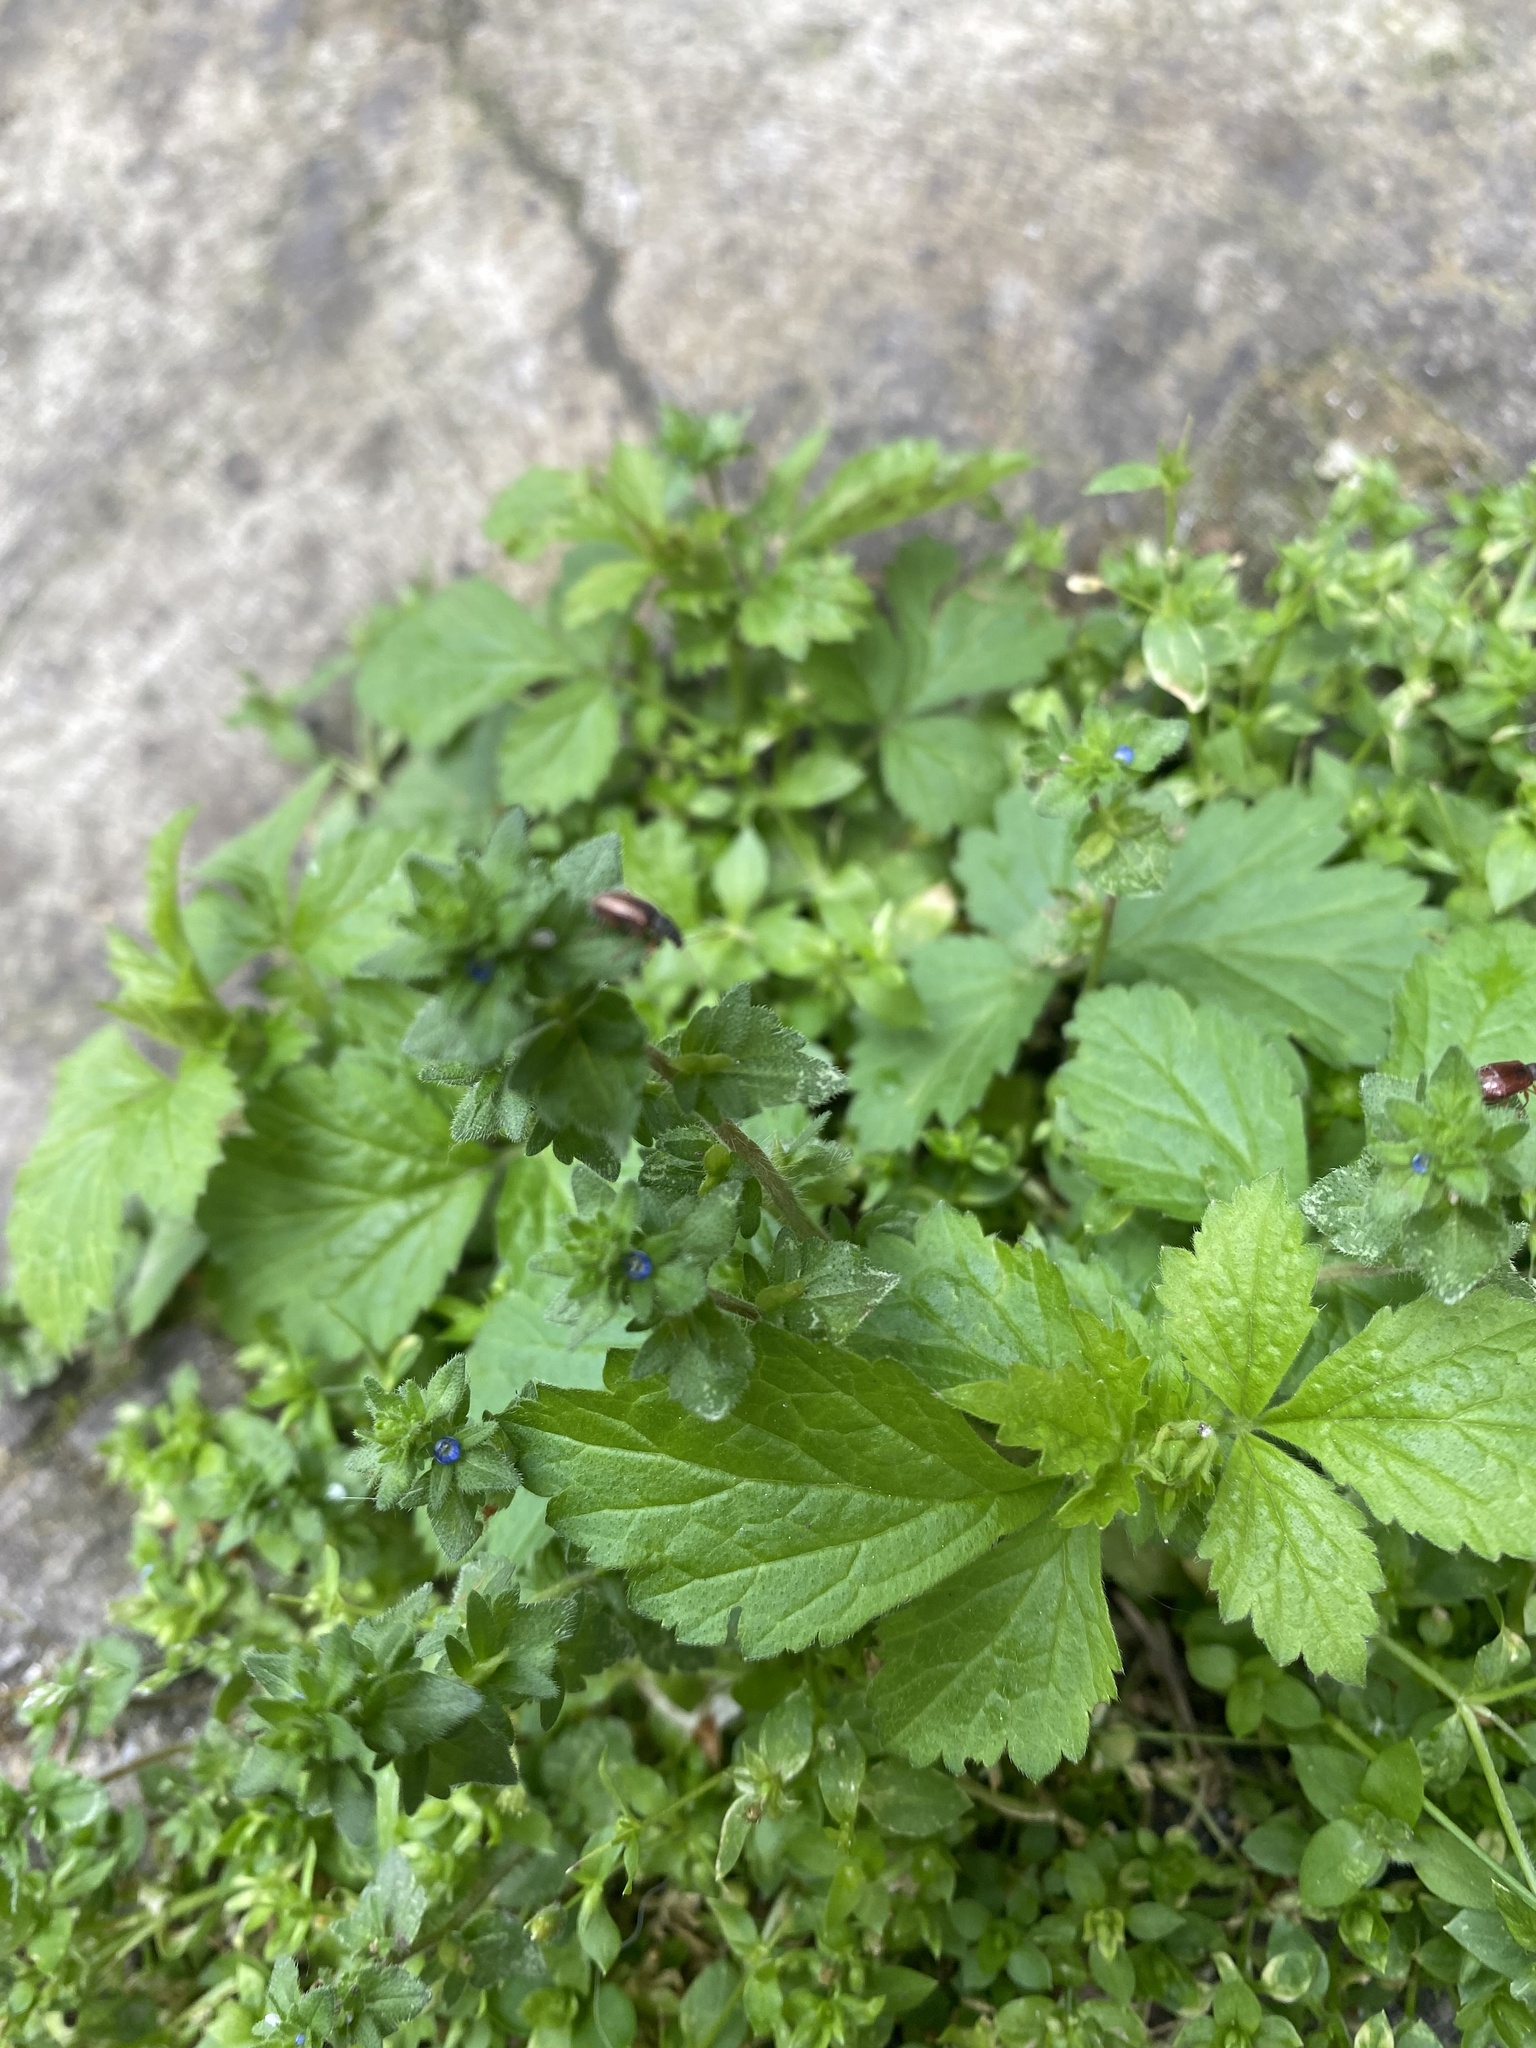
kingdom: Plantae
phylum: Tracheophyta
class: Magnoliopsida
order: Lamiales
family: Plantaginaceae
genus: Veronica
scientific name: Veronica arvensis
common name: Corn speedwell
